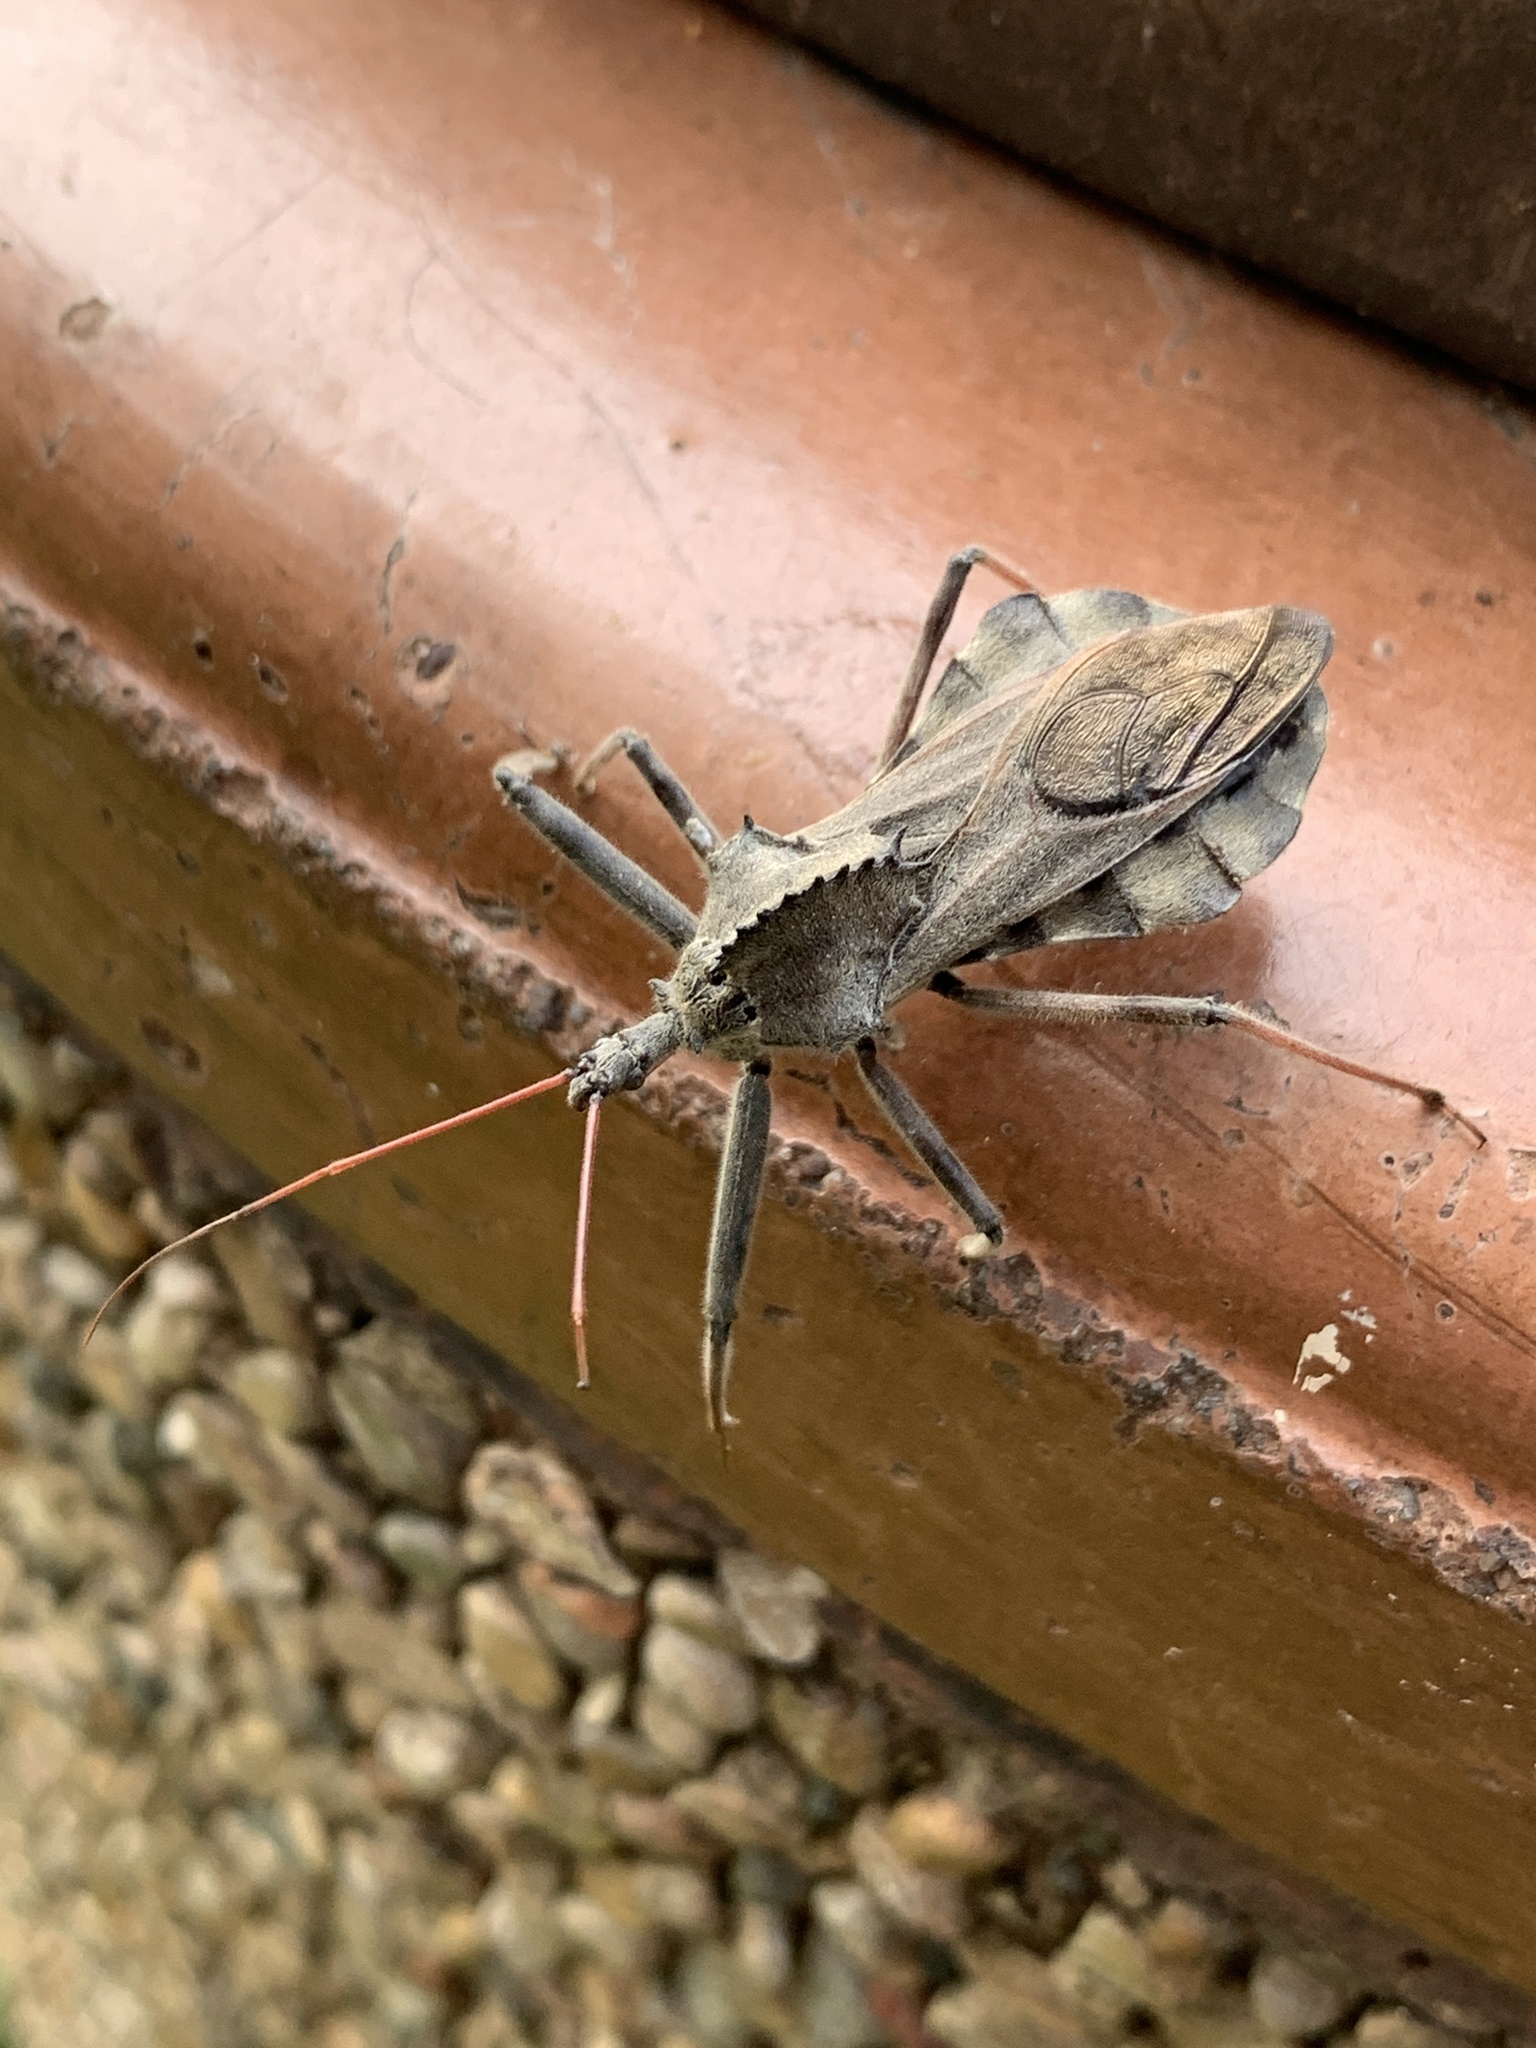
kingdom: Animalia
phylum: Arthropoda
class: Insecta
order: Hemiptera
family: Reduviidae
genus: Arilus
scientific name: Arilus cristatus
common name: North american wheel bug
